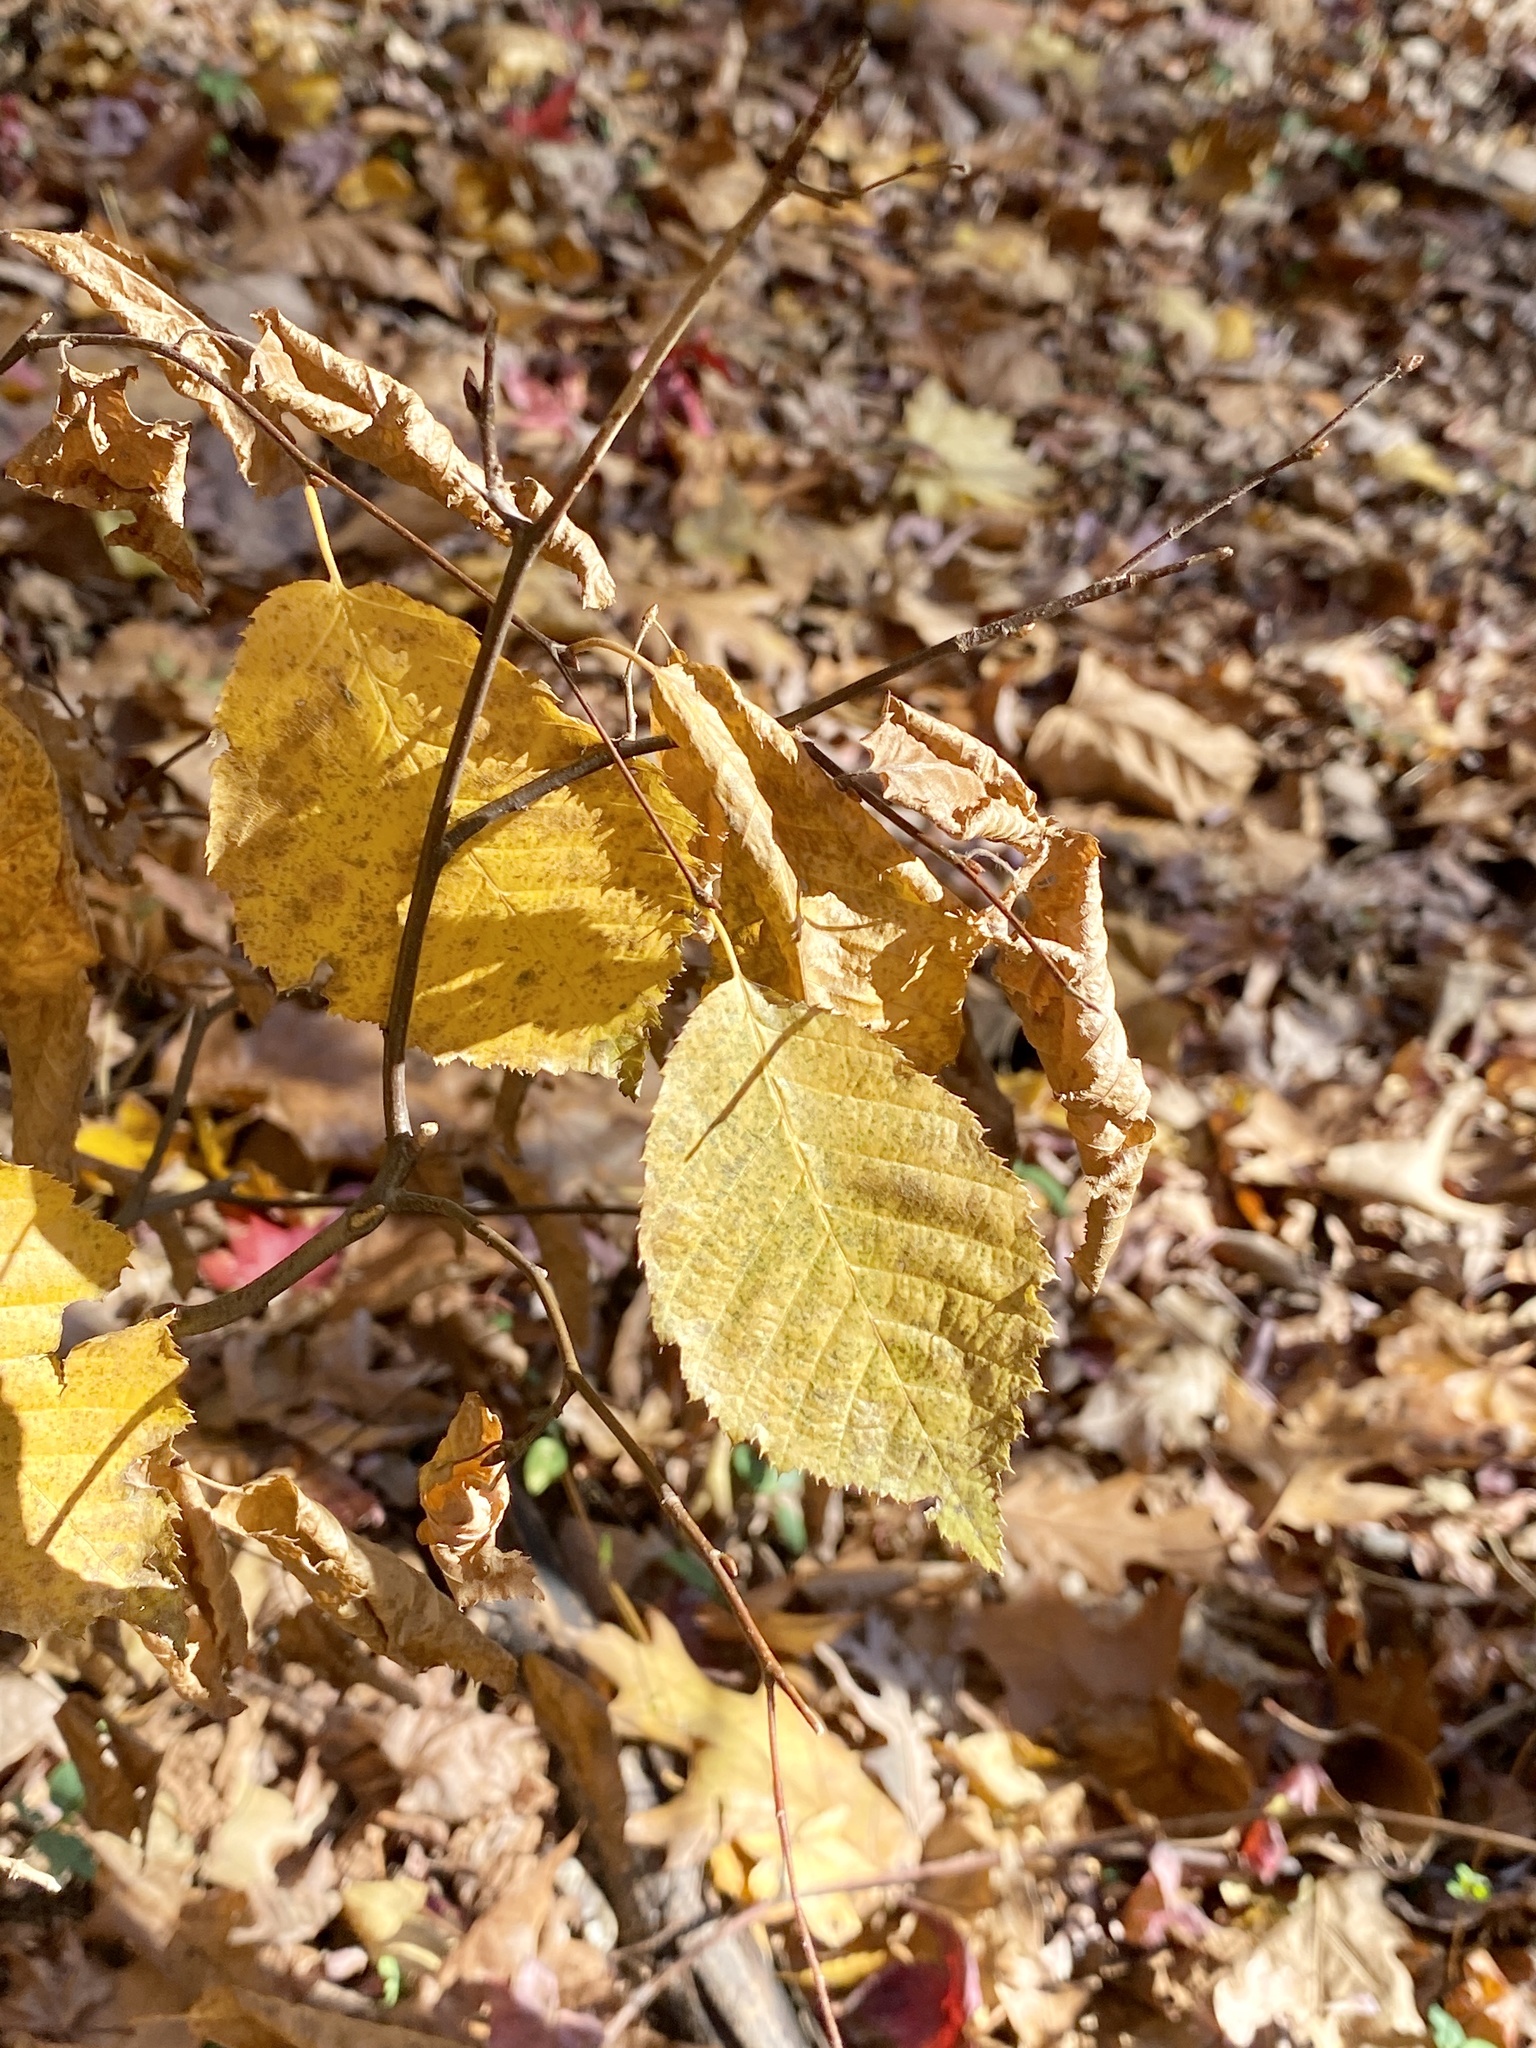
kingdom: Plantae
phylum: Tracheophyta
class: Magnoliopsida
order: Fagales
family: Betulaceae
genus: Carpinus
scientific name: Carpinus caroliniana
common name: American hornbeam
